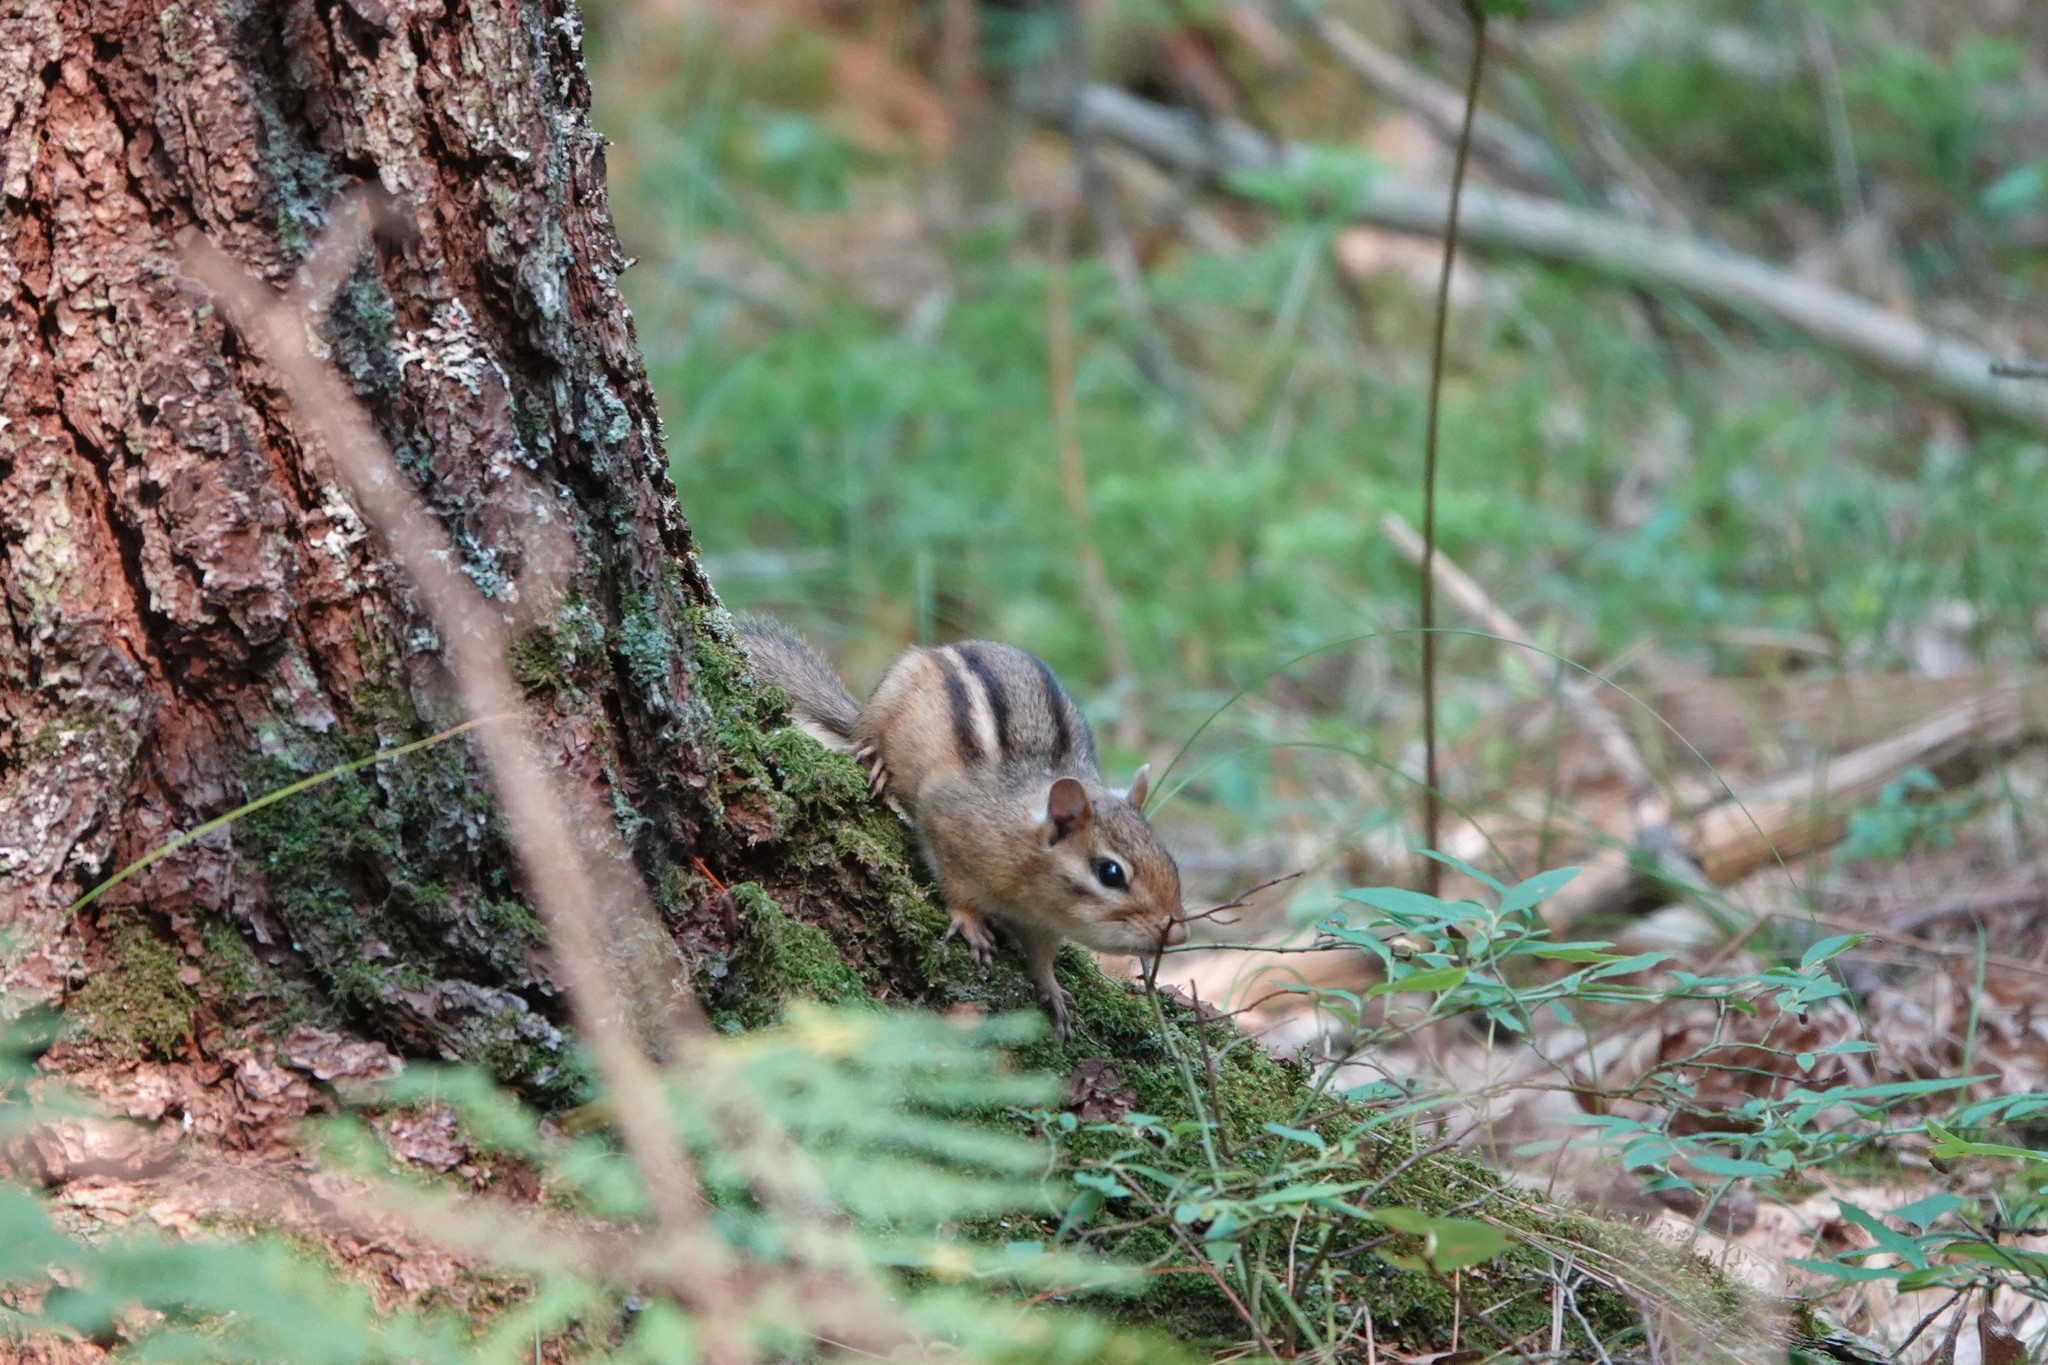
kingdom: Animalia
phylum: Chordata
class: Mammalia
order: Rodentia
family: Sciuridae
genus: Tamias
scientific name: Tamias striatus
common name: Eastern chipmunk
